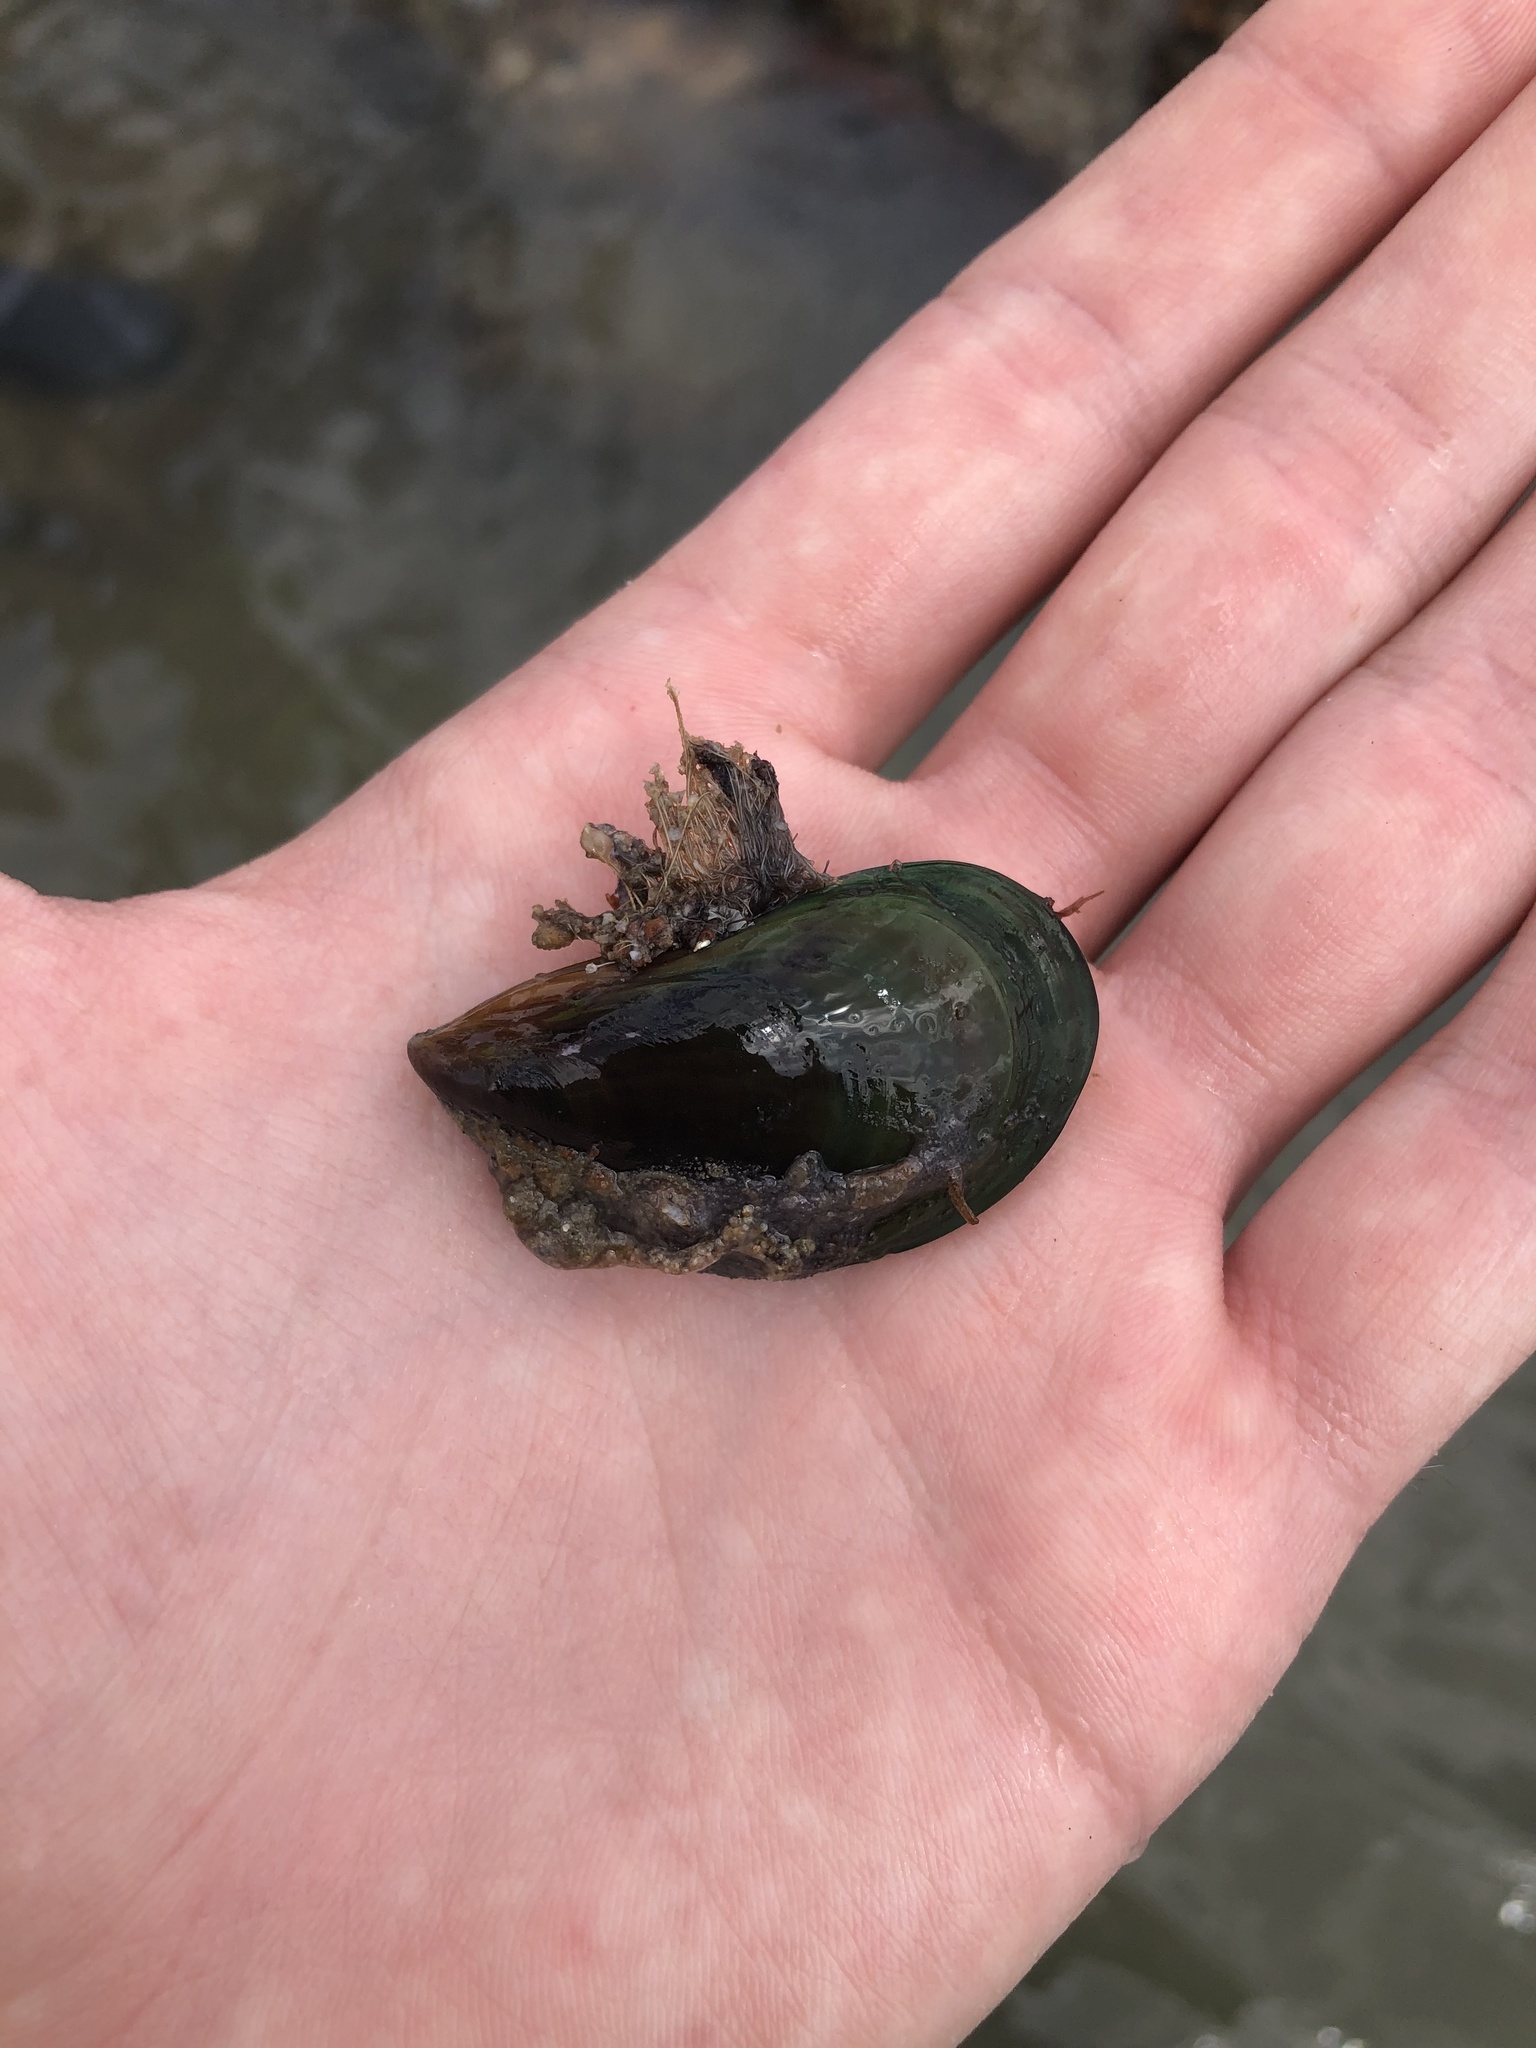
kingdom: Animalia
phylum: Mollusca
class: Bivalvia
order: Mytilida
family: Mytilidae
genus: Perna
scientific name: Perna viridis
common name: Green mussel
